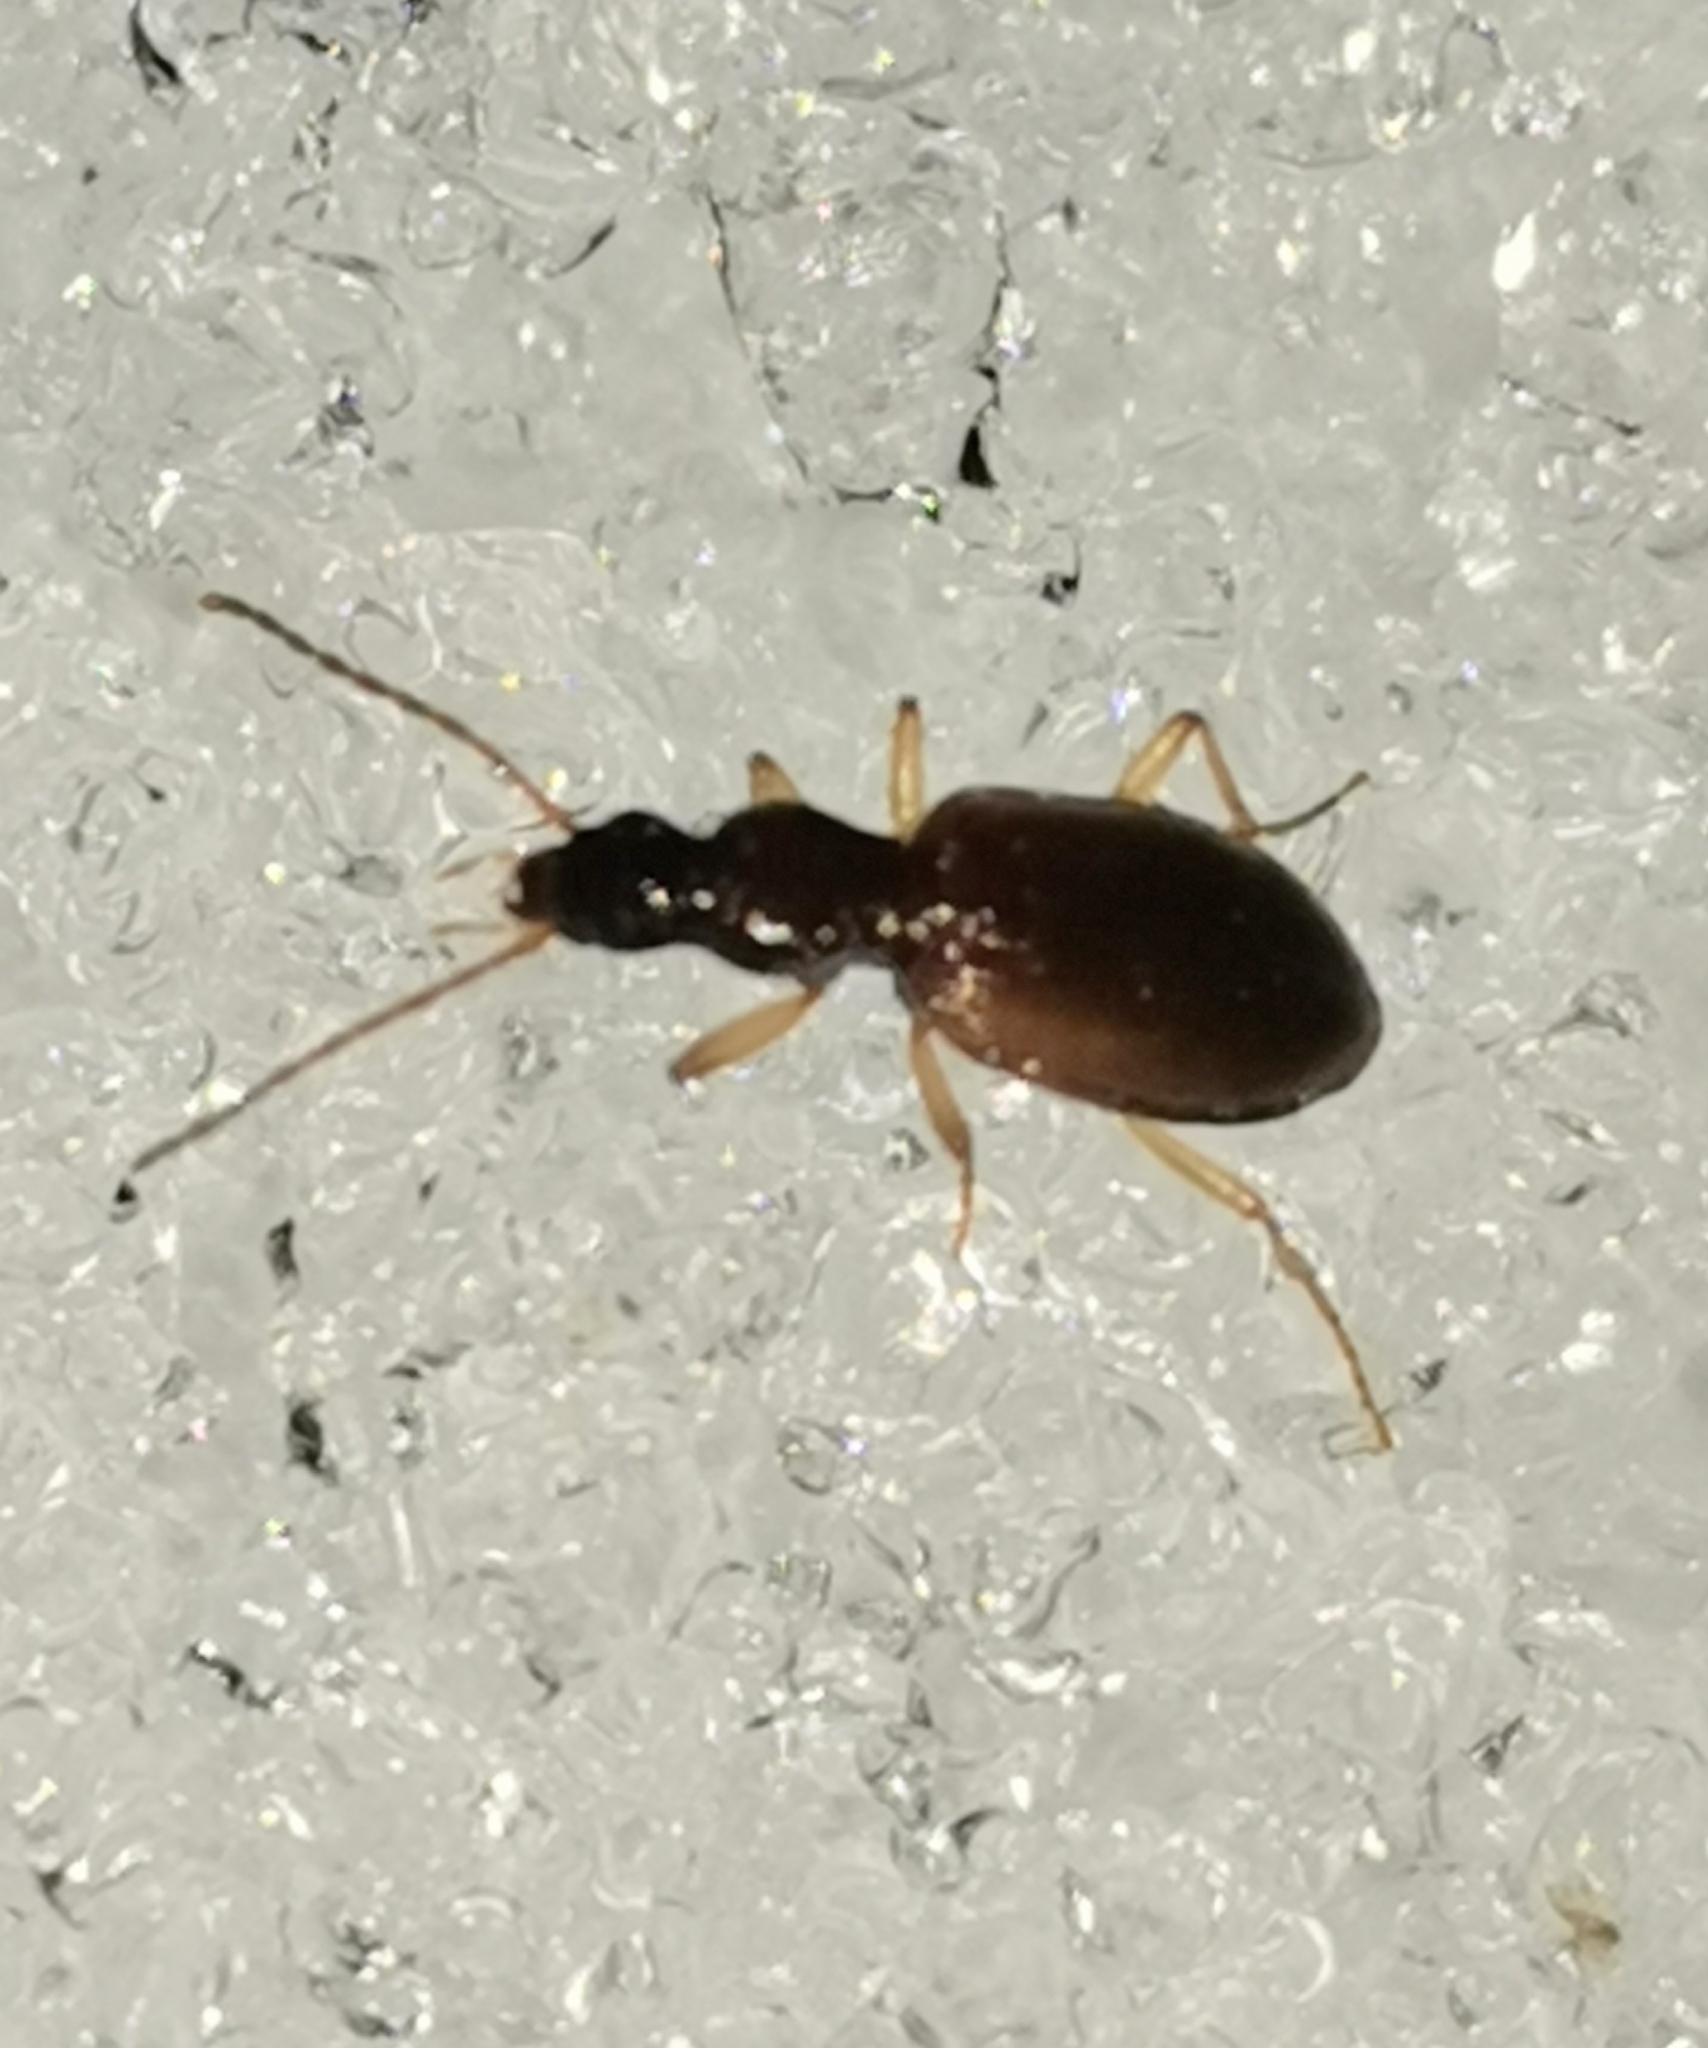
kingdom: Animalia
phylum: Arthropoda
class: Insecta
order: Coleoptera
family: Carabidae
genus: Oxypselaphus
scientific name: Oxypselaphus obscurus
